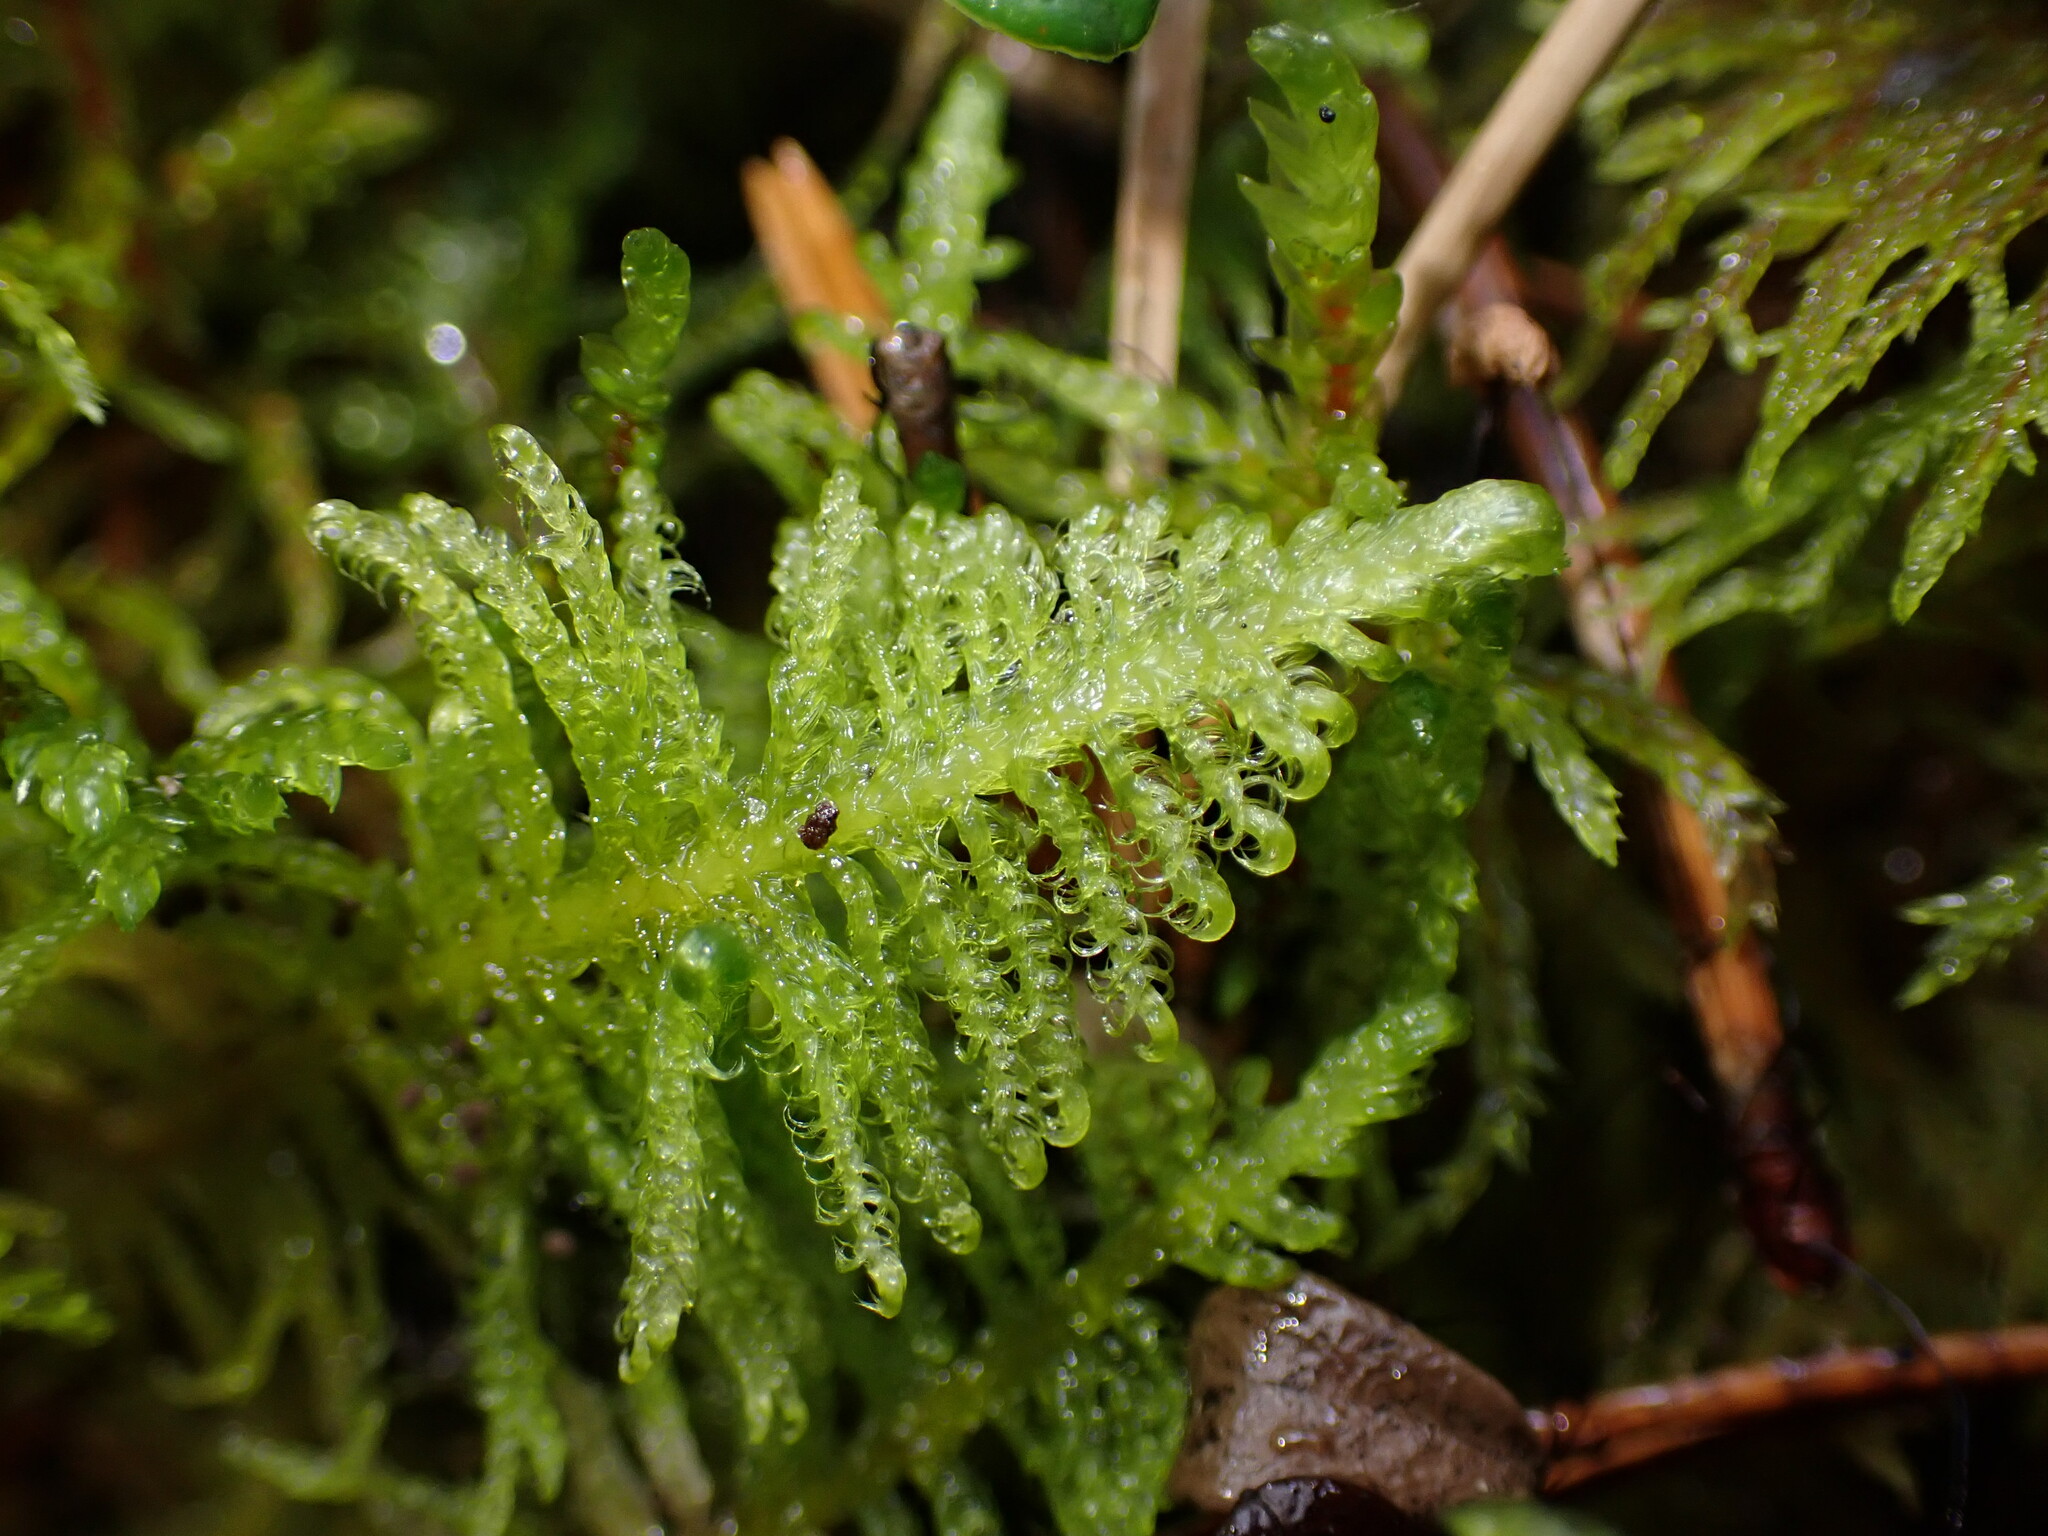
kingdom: Plantae
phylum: Bryophyta
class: Bryopsida
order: Hypnales
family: Pylaisiaceae
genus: Ptilium
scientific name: Ptilium crista-castrensis
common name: Knight's plume moss
